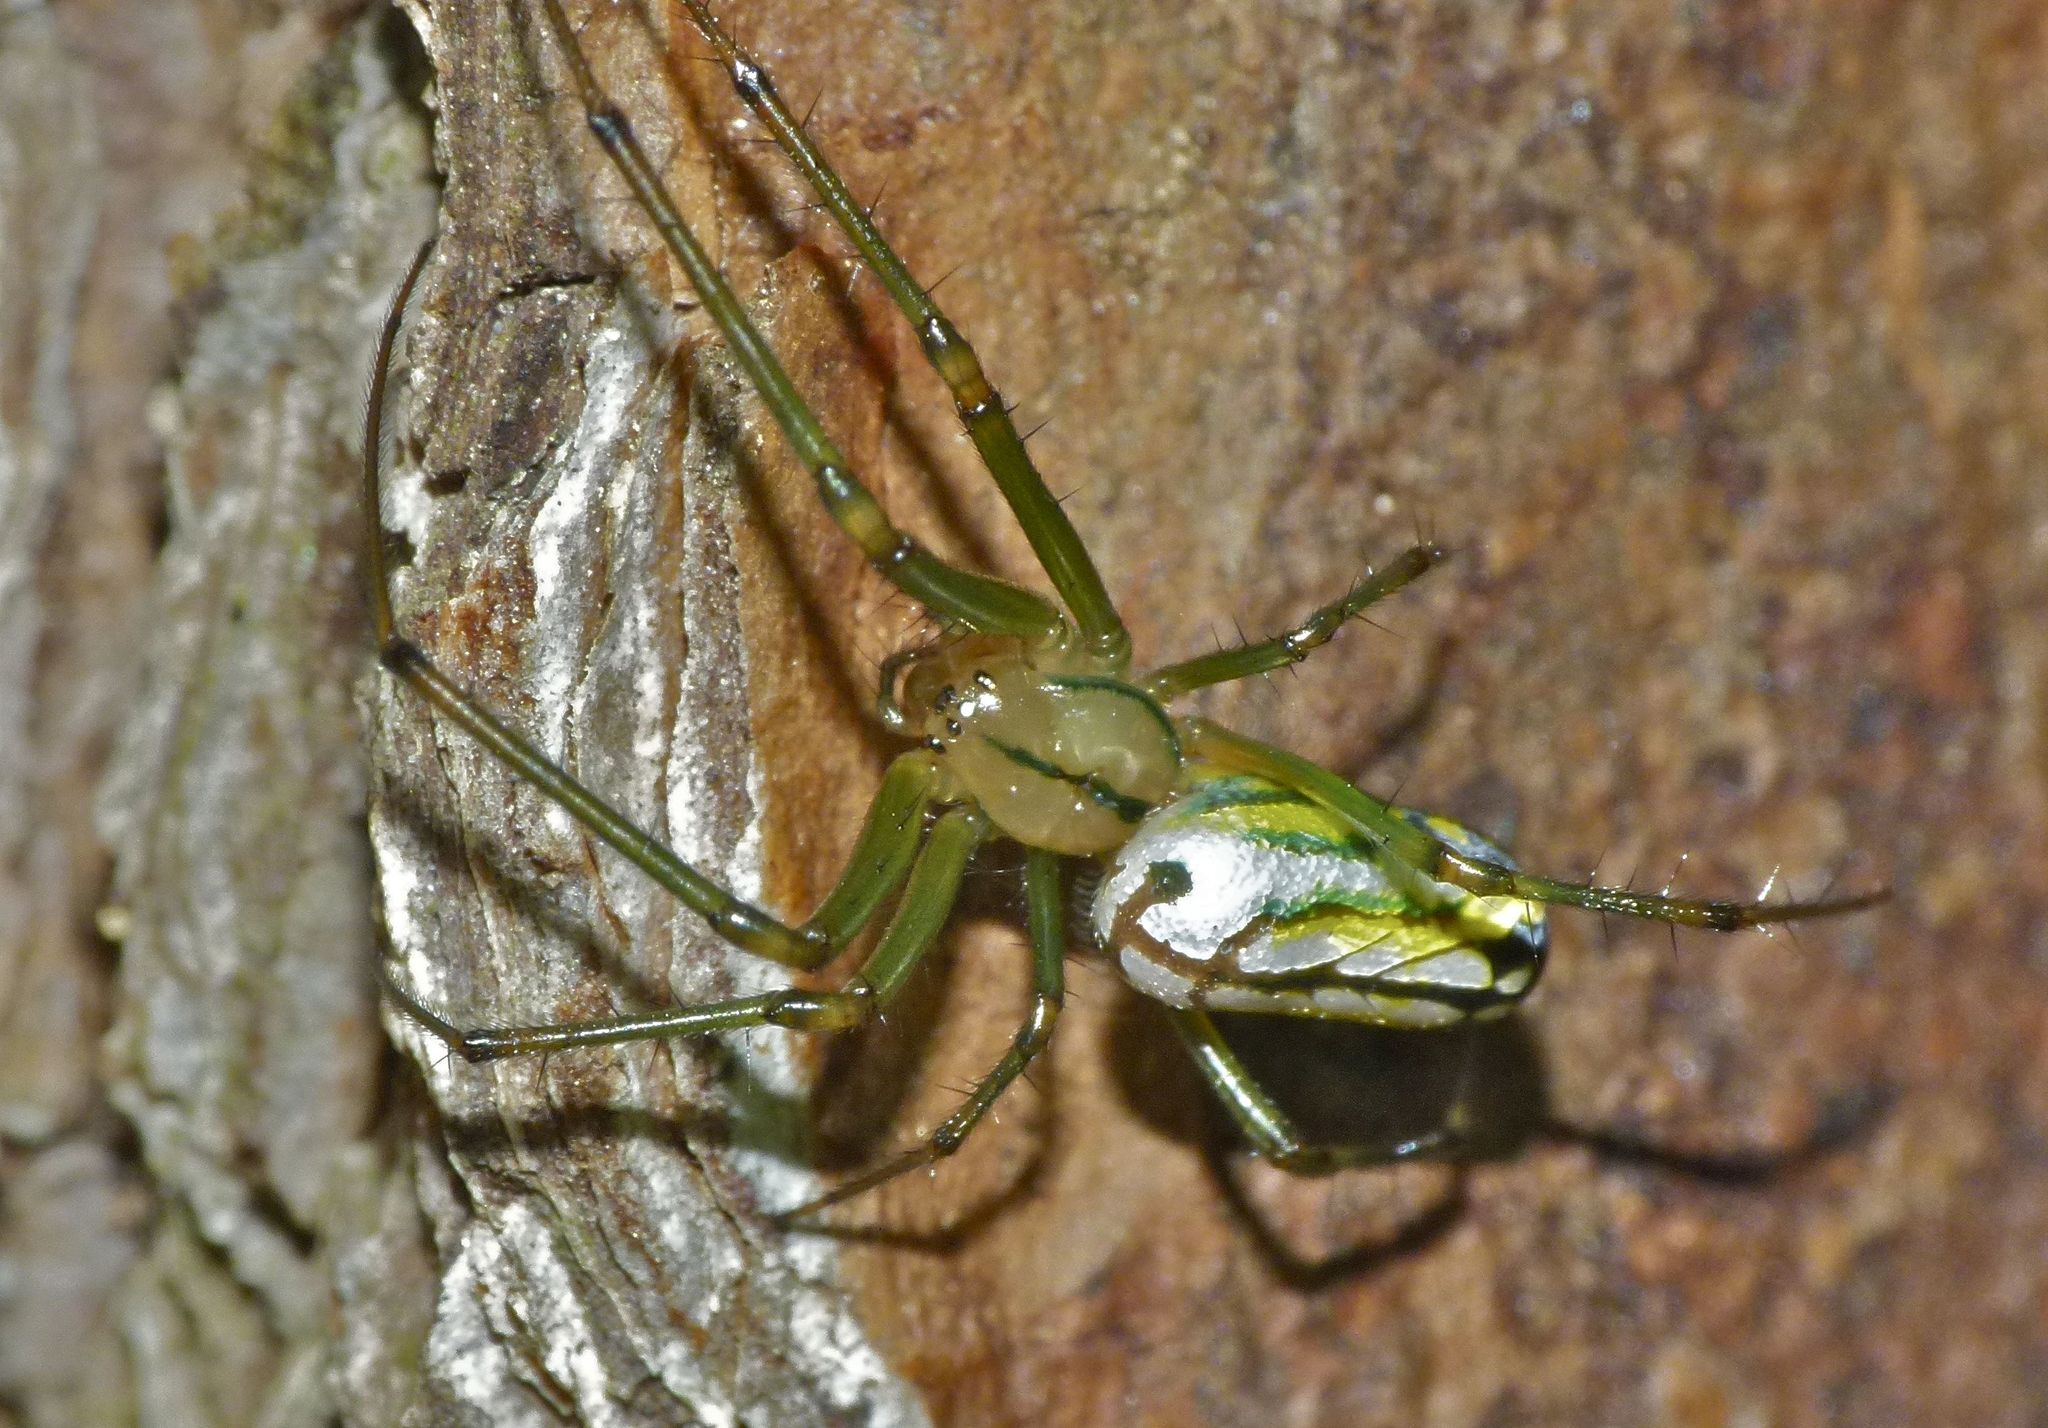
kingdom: Animalia
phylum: Arthropoda
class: Arachnida
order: Araneae
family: Tetragnathidae
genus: Leucauge
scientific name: Leucauge venusta
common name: Longjawed orb weavers
